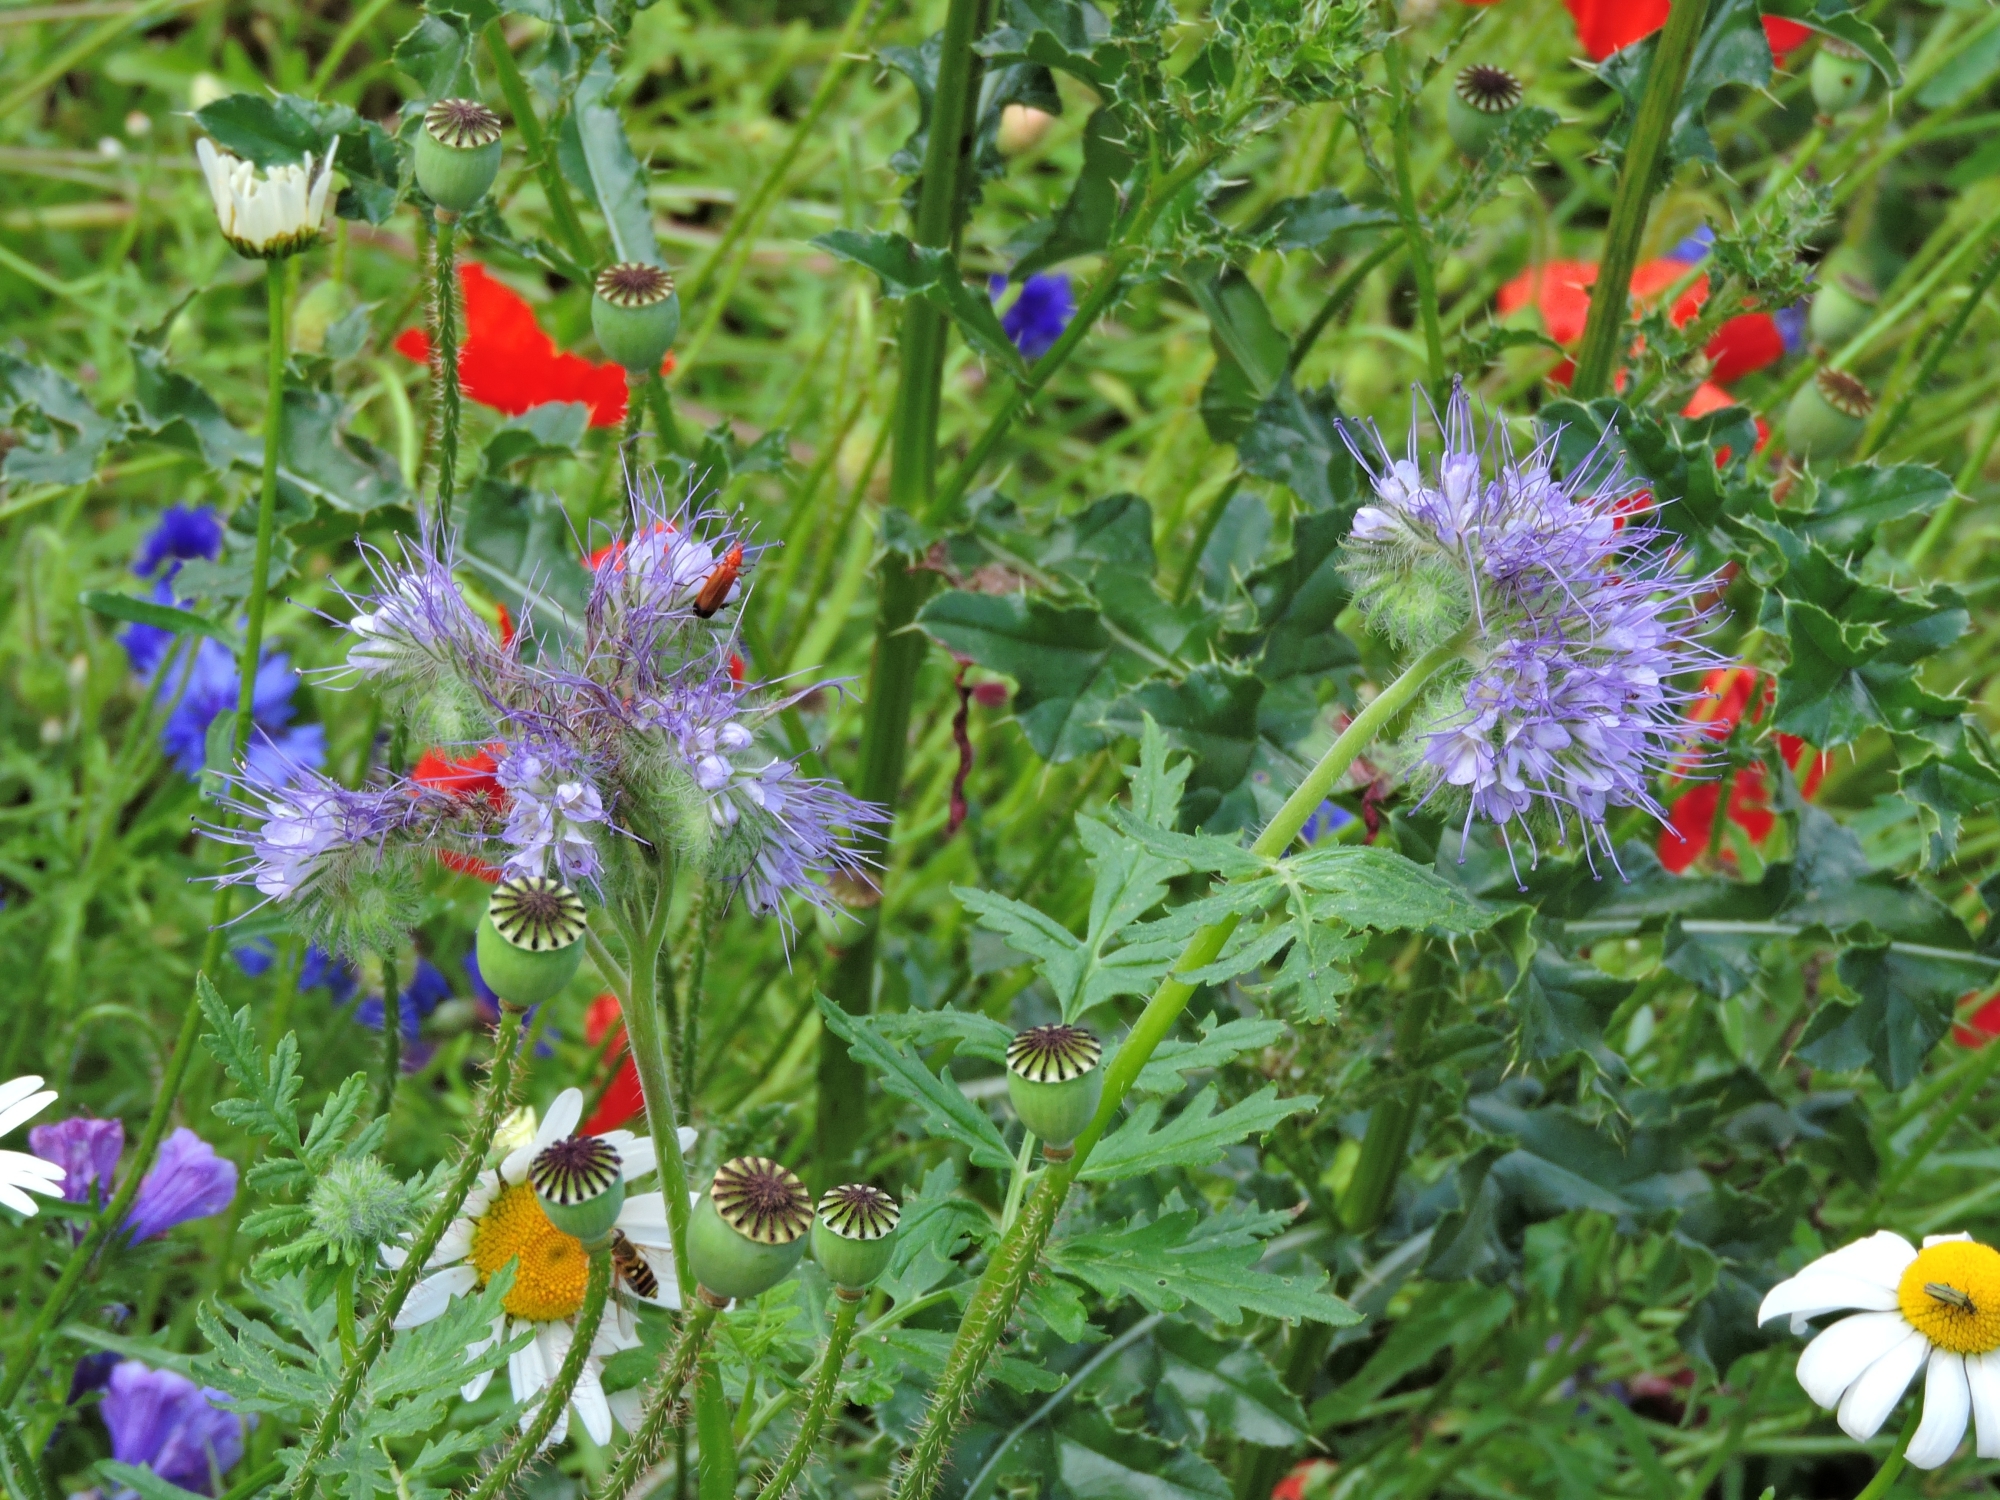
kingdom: Plantae
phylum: Tracheophyta
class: Magnoliopsida
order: Boraginales
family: Hydrophyllaceae
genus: Phacelia
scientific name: Phacelia tanacetifolia
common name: Phacelia
